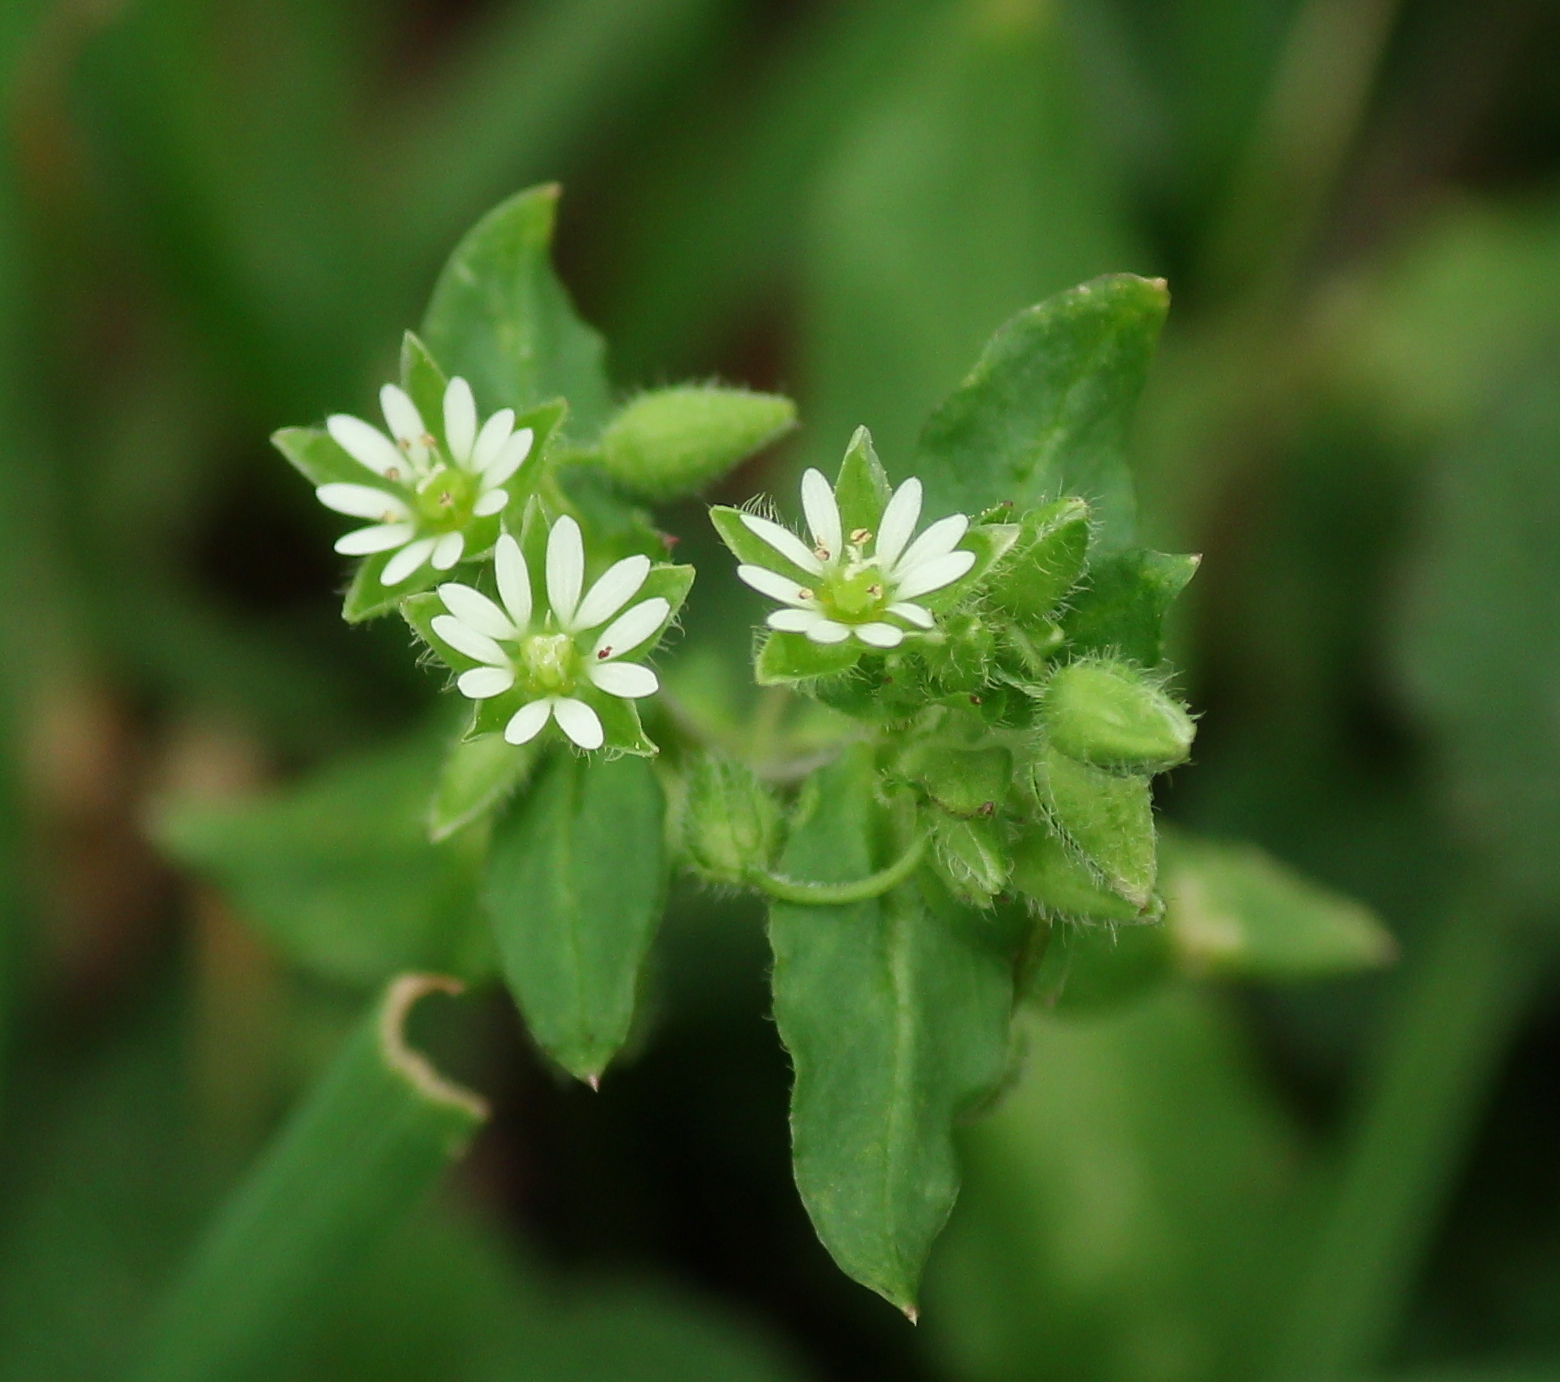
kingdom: Plantae
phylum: Tracheophyta
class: Magnoliopsida
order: Caryophyllales
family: Caryophyllaceae
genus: Stellaria
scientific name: Stellaria media
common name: Common chickweed
